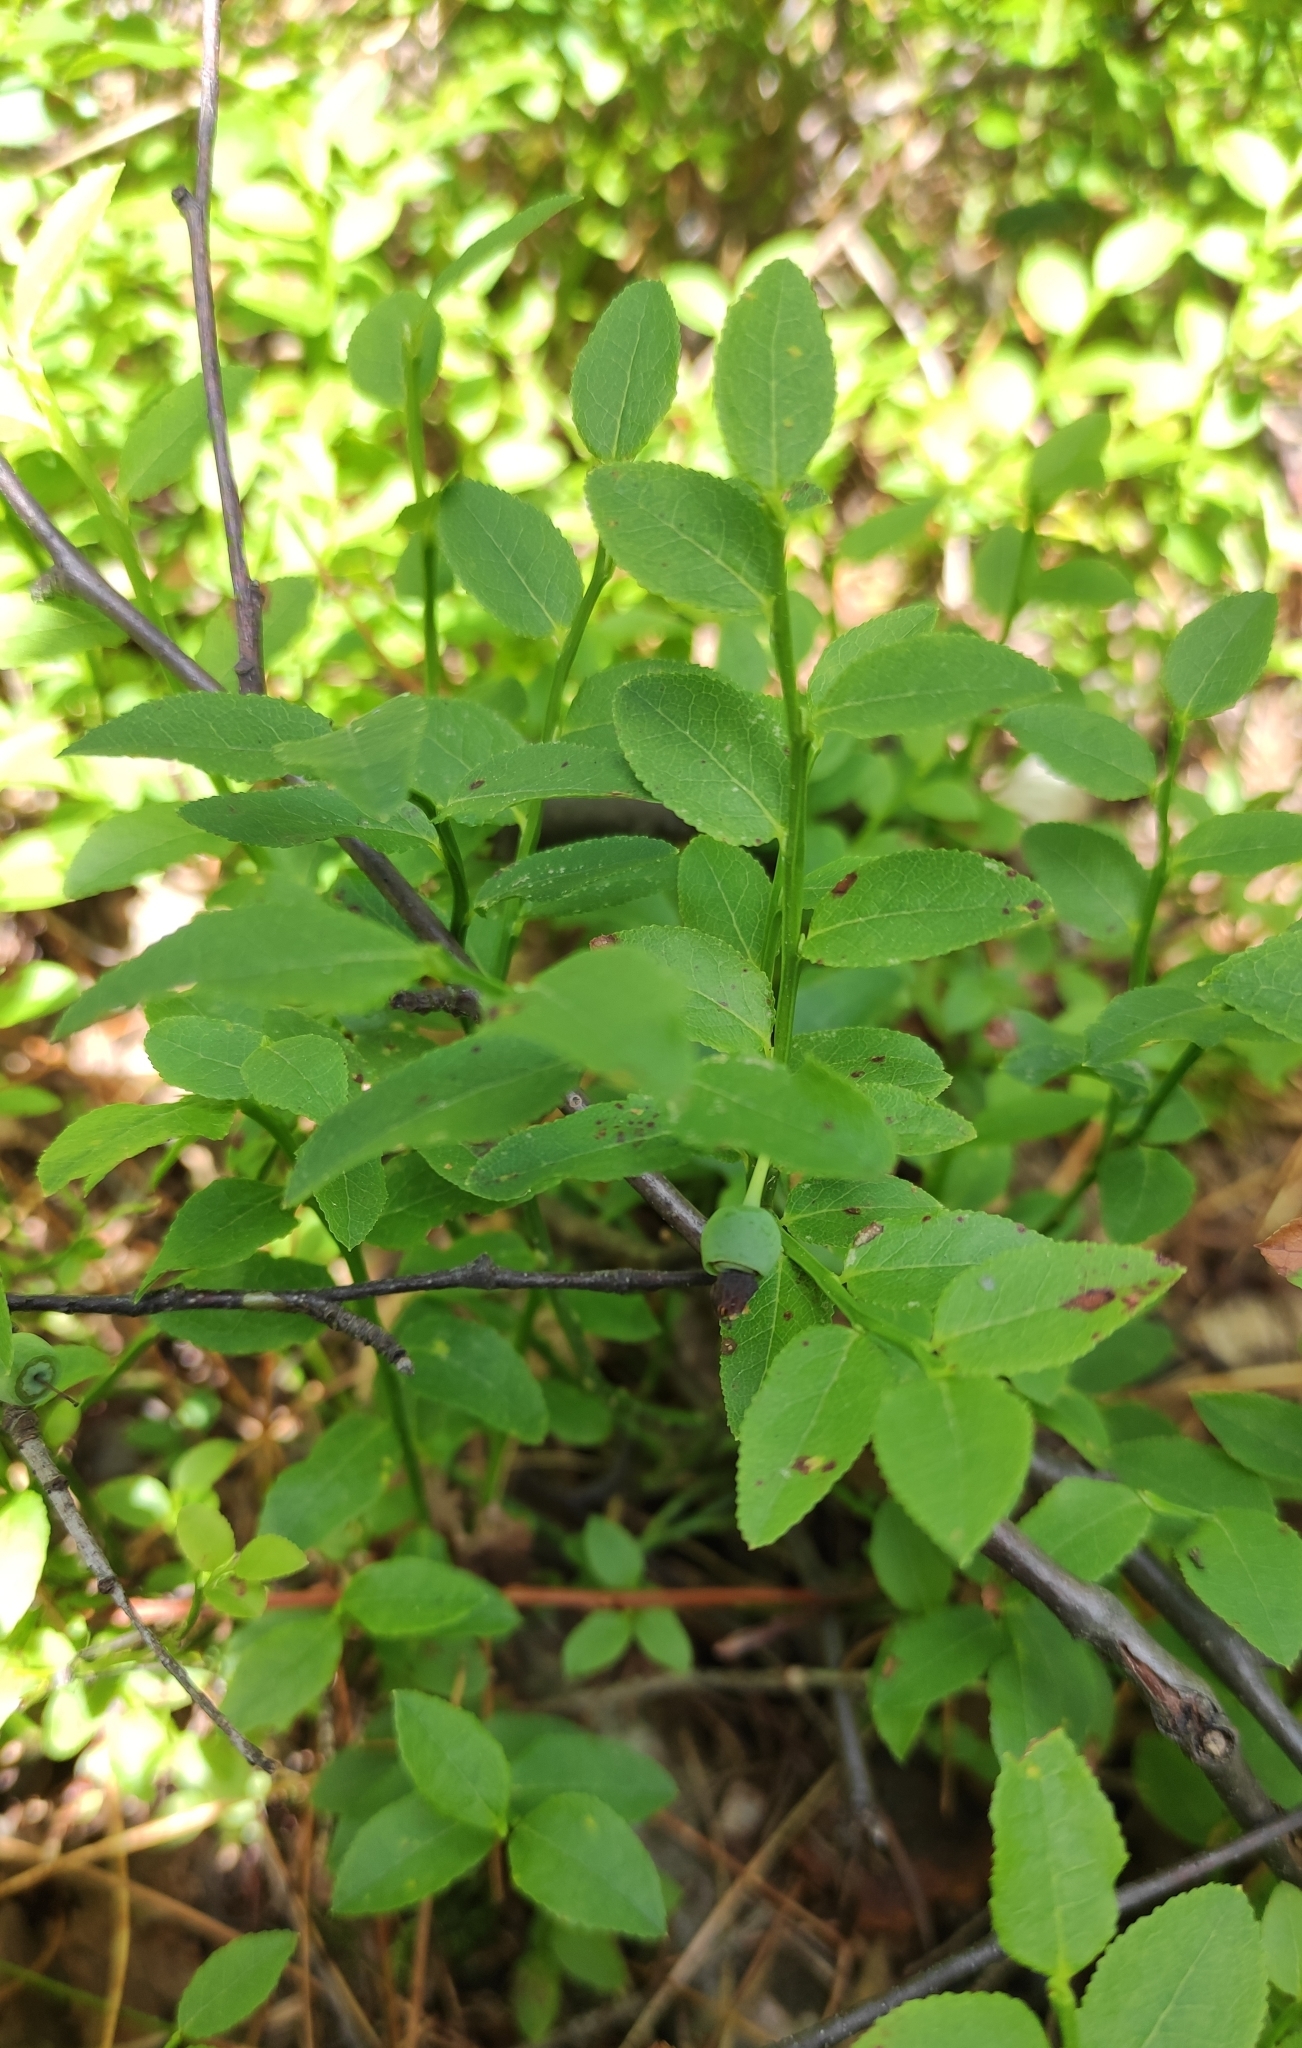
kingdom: Plantae
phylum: Tracheophyta
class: Magnoliopsida
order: Ericales
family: Ericaceae
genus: Vaccinium
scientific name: Vaccinium myrtillus
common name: Bilberry
